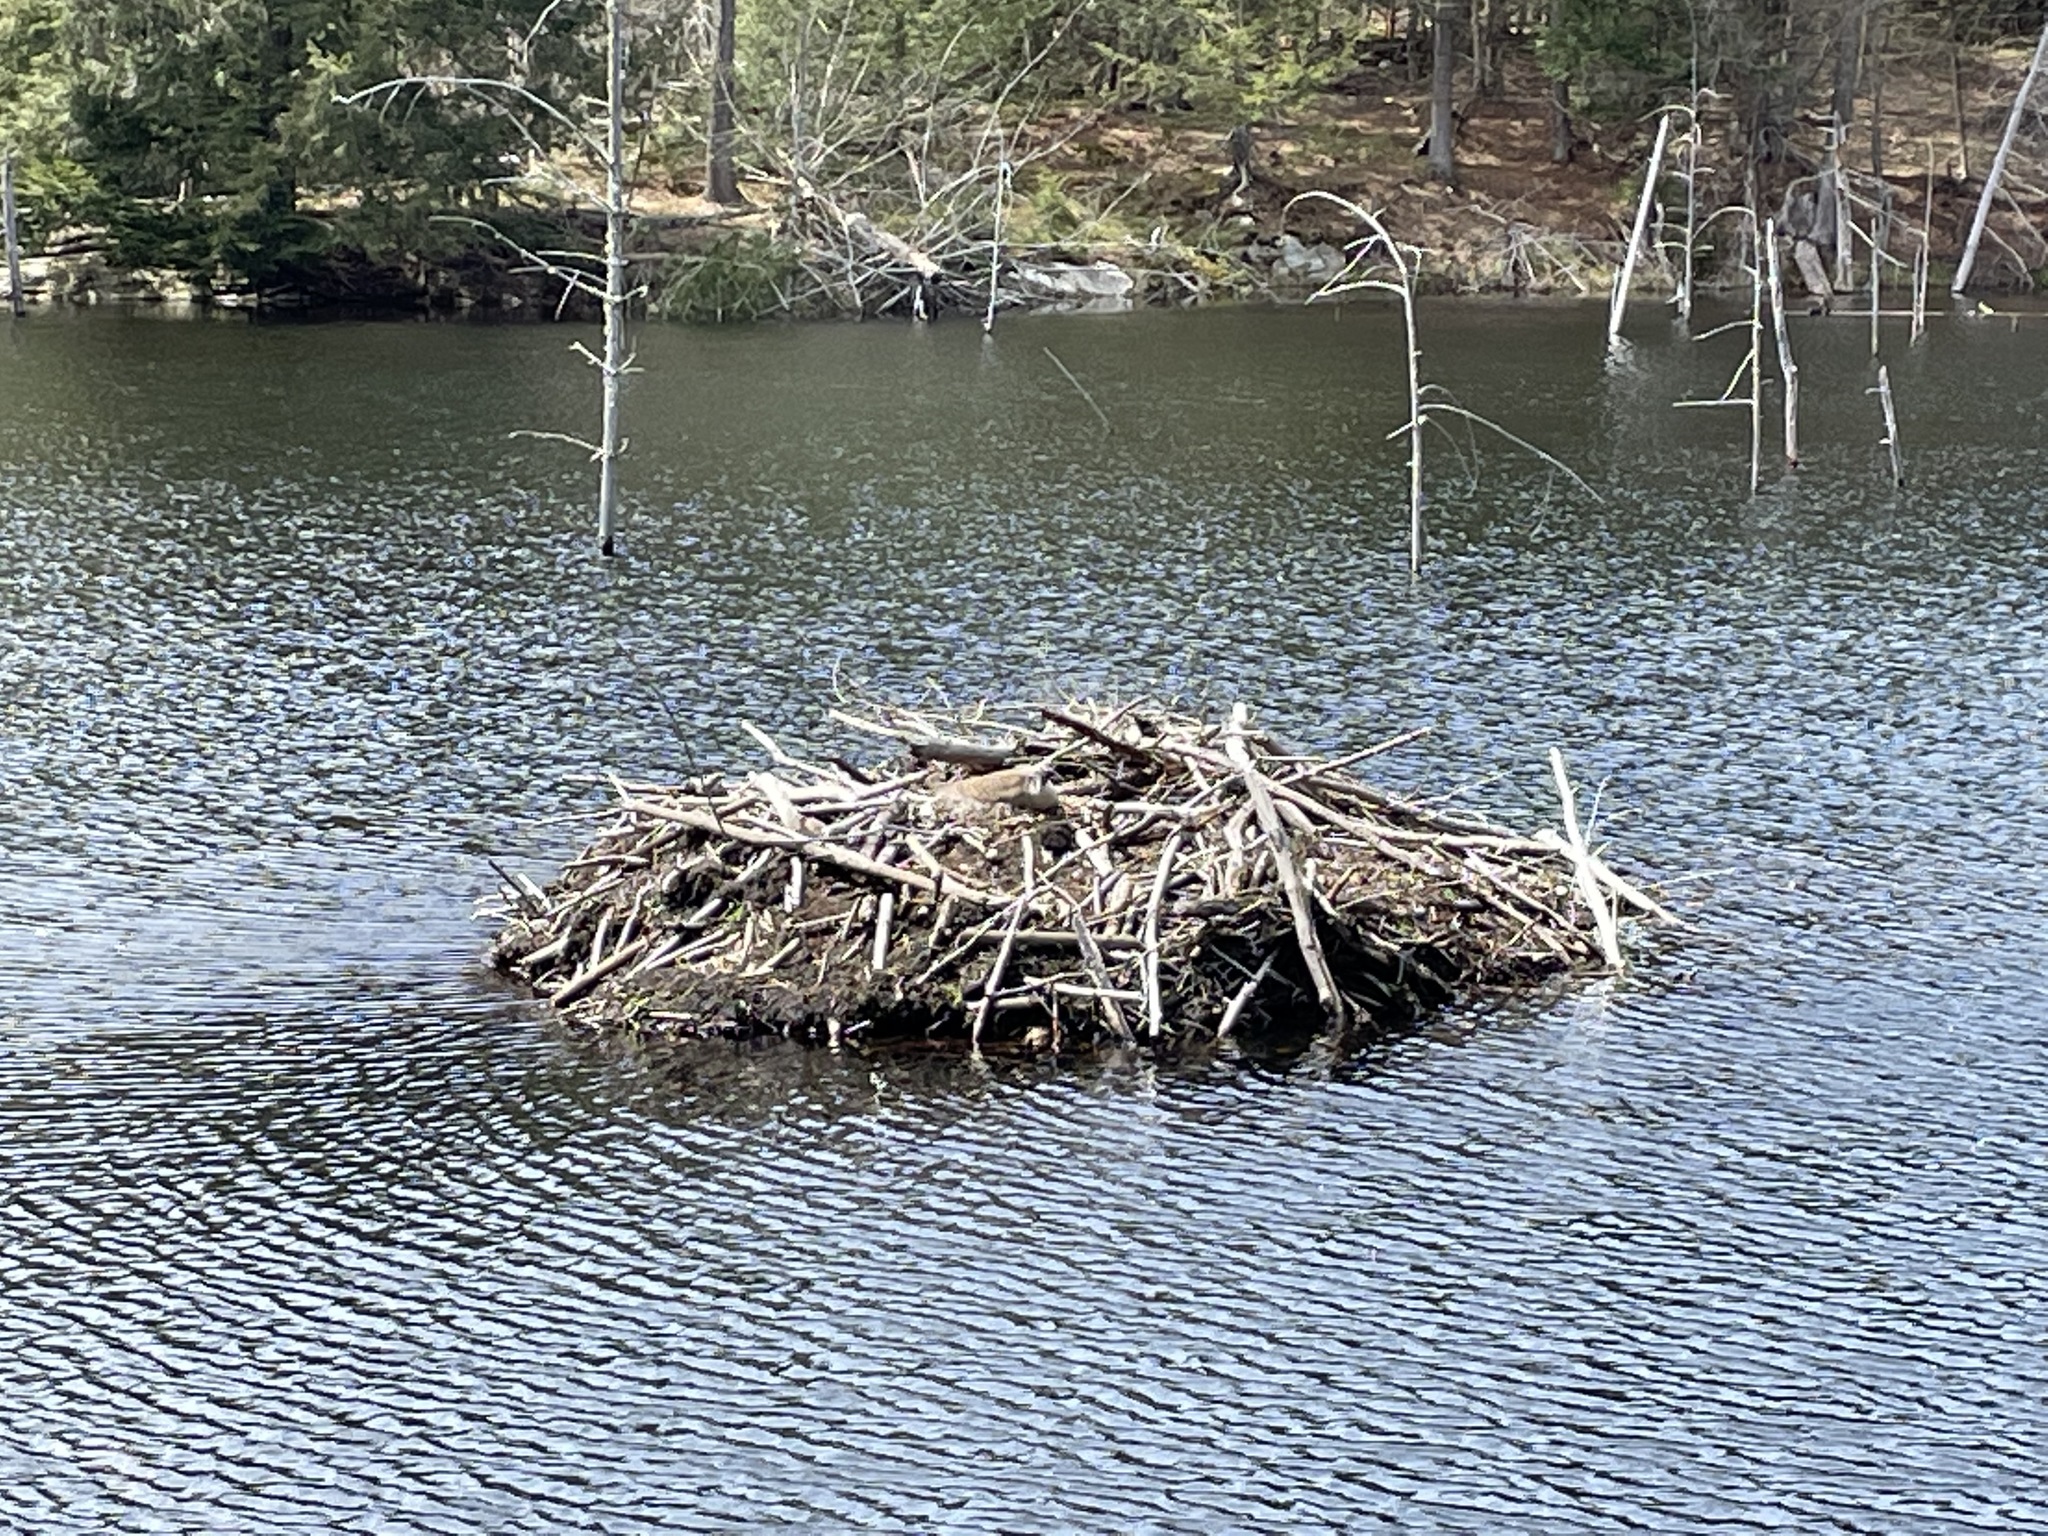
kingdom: Animalia
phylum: Chordata
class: Mammalia
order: Rodentia
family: Castoridae
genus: Castor
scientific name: Castor canadensis
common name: American beaver
